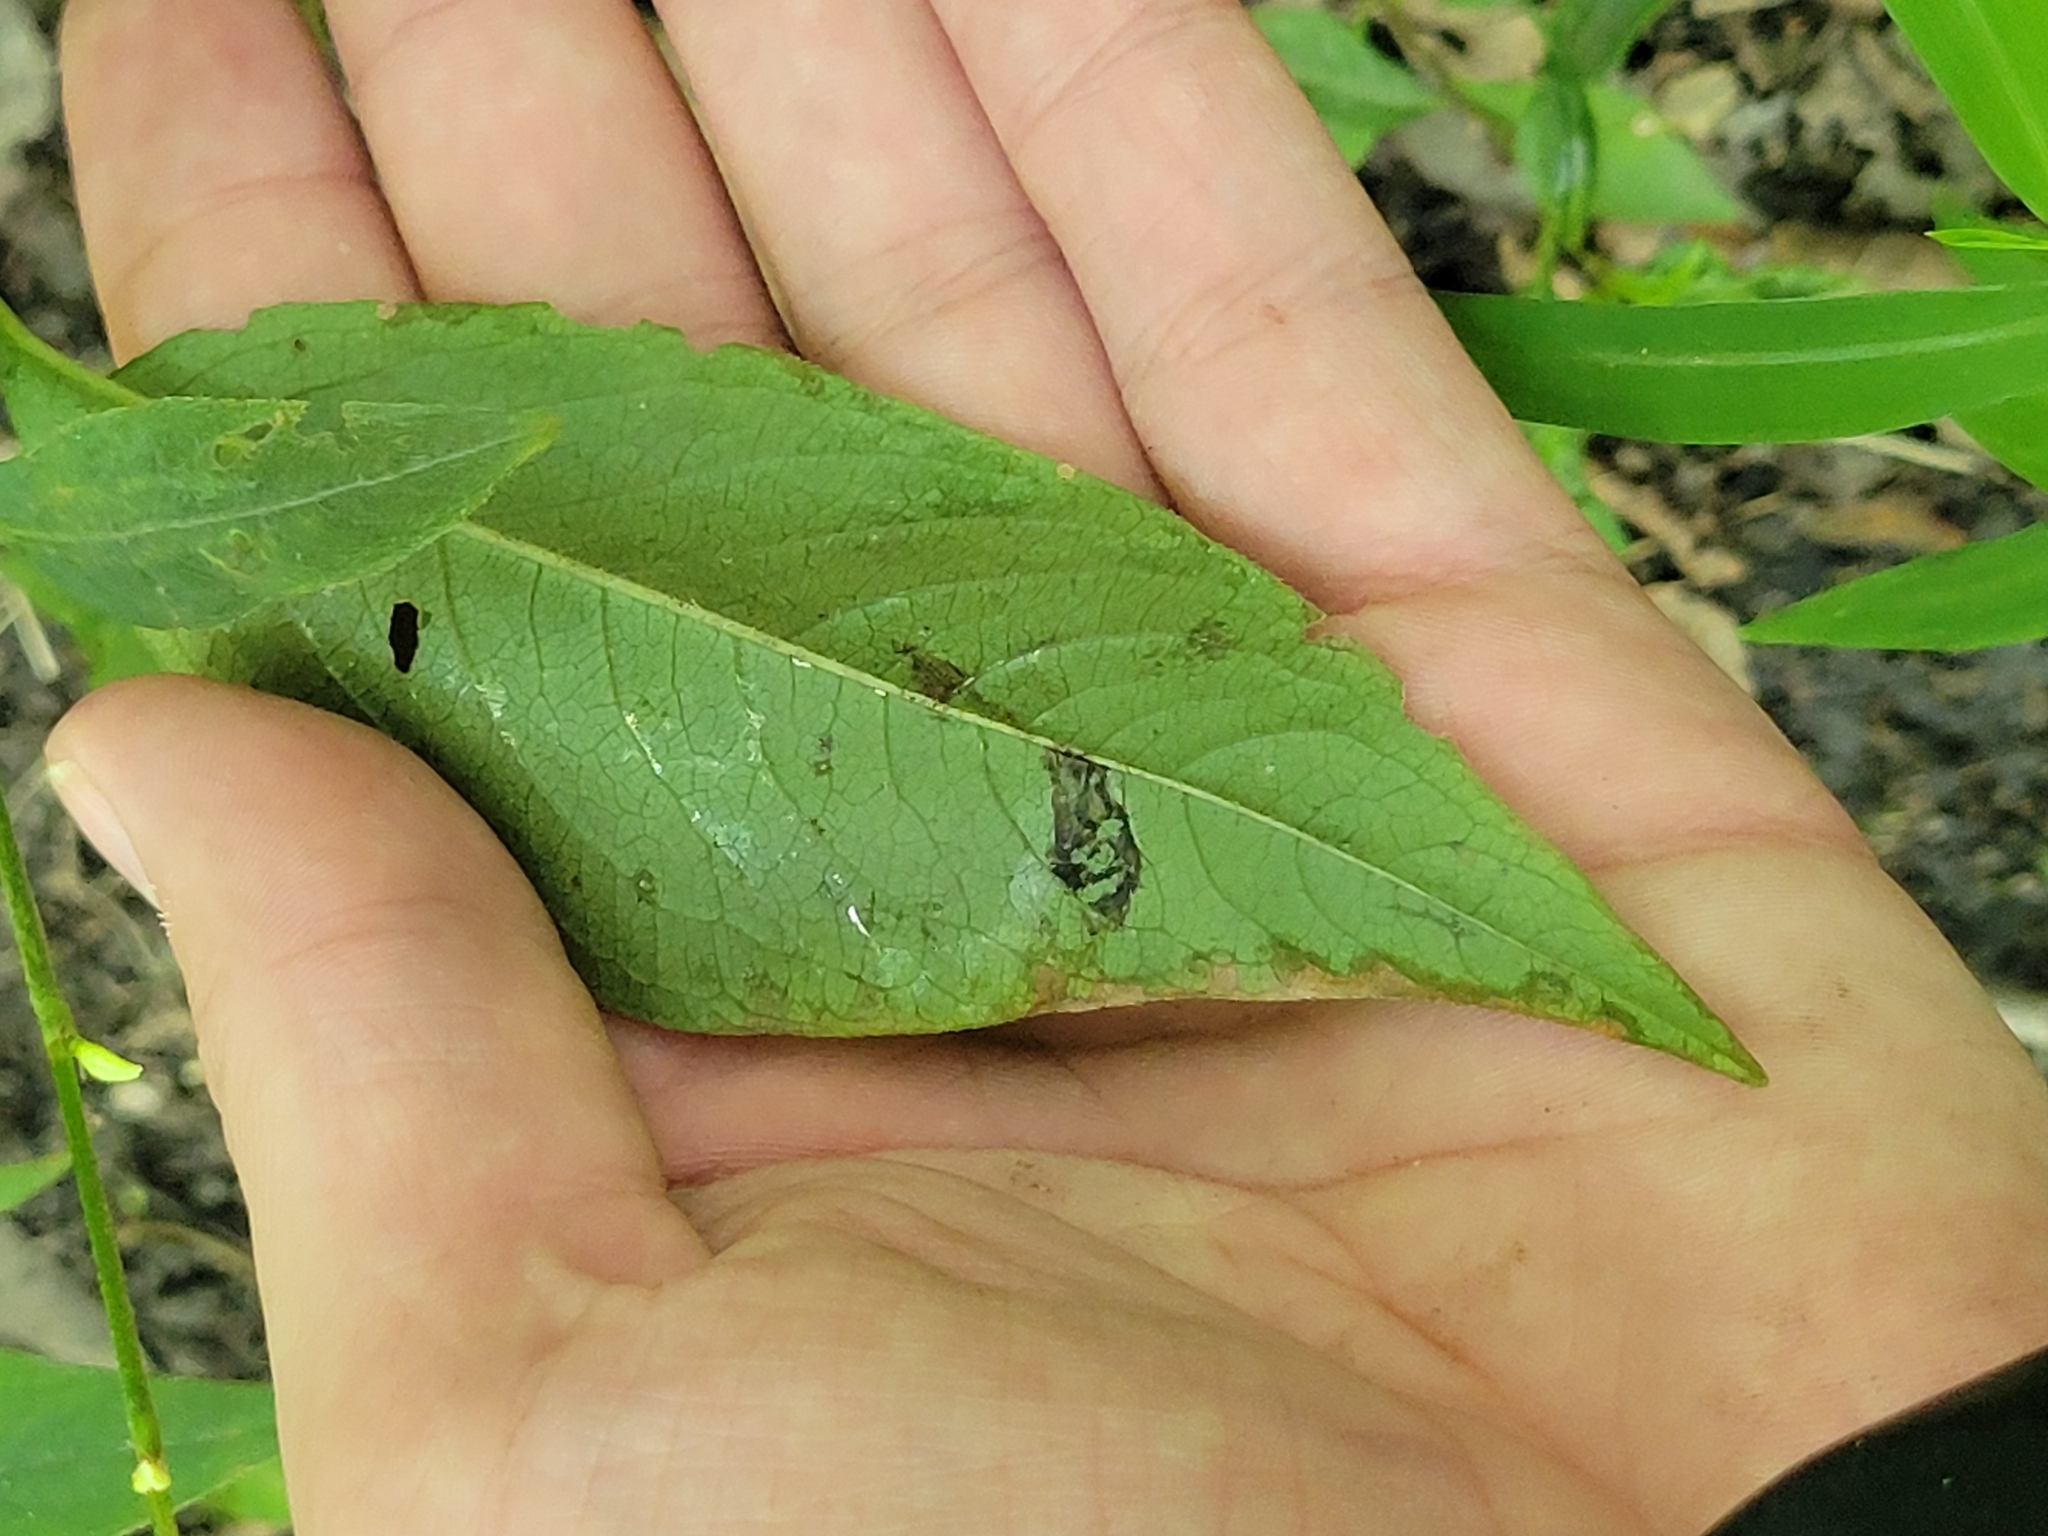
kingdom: Plantae
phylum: Tracheophyta
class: Magnoliopsida
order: Caryophyllales
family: Polygonaceae
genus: Persicaria
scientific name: Persicaria virginiana
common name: Jumpseed
